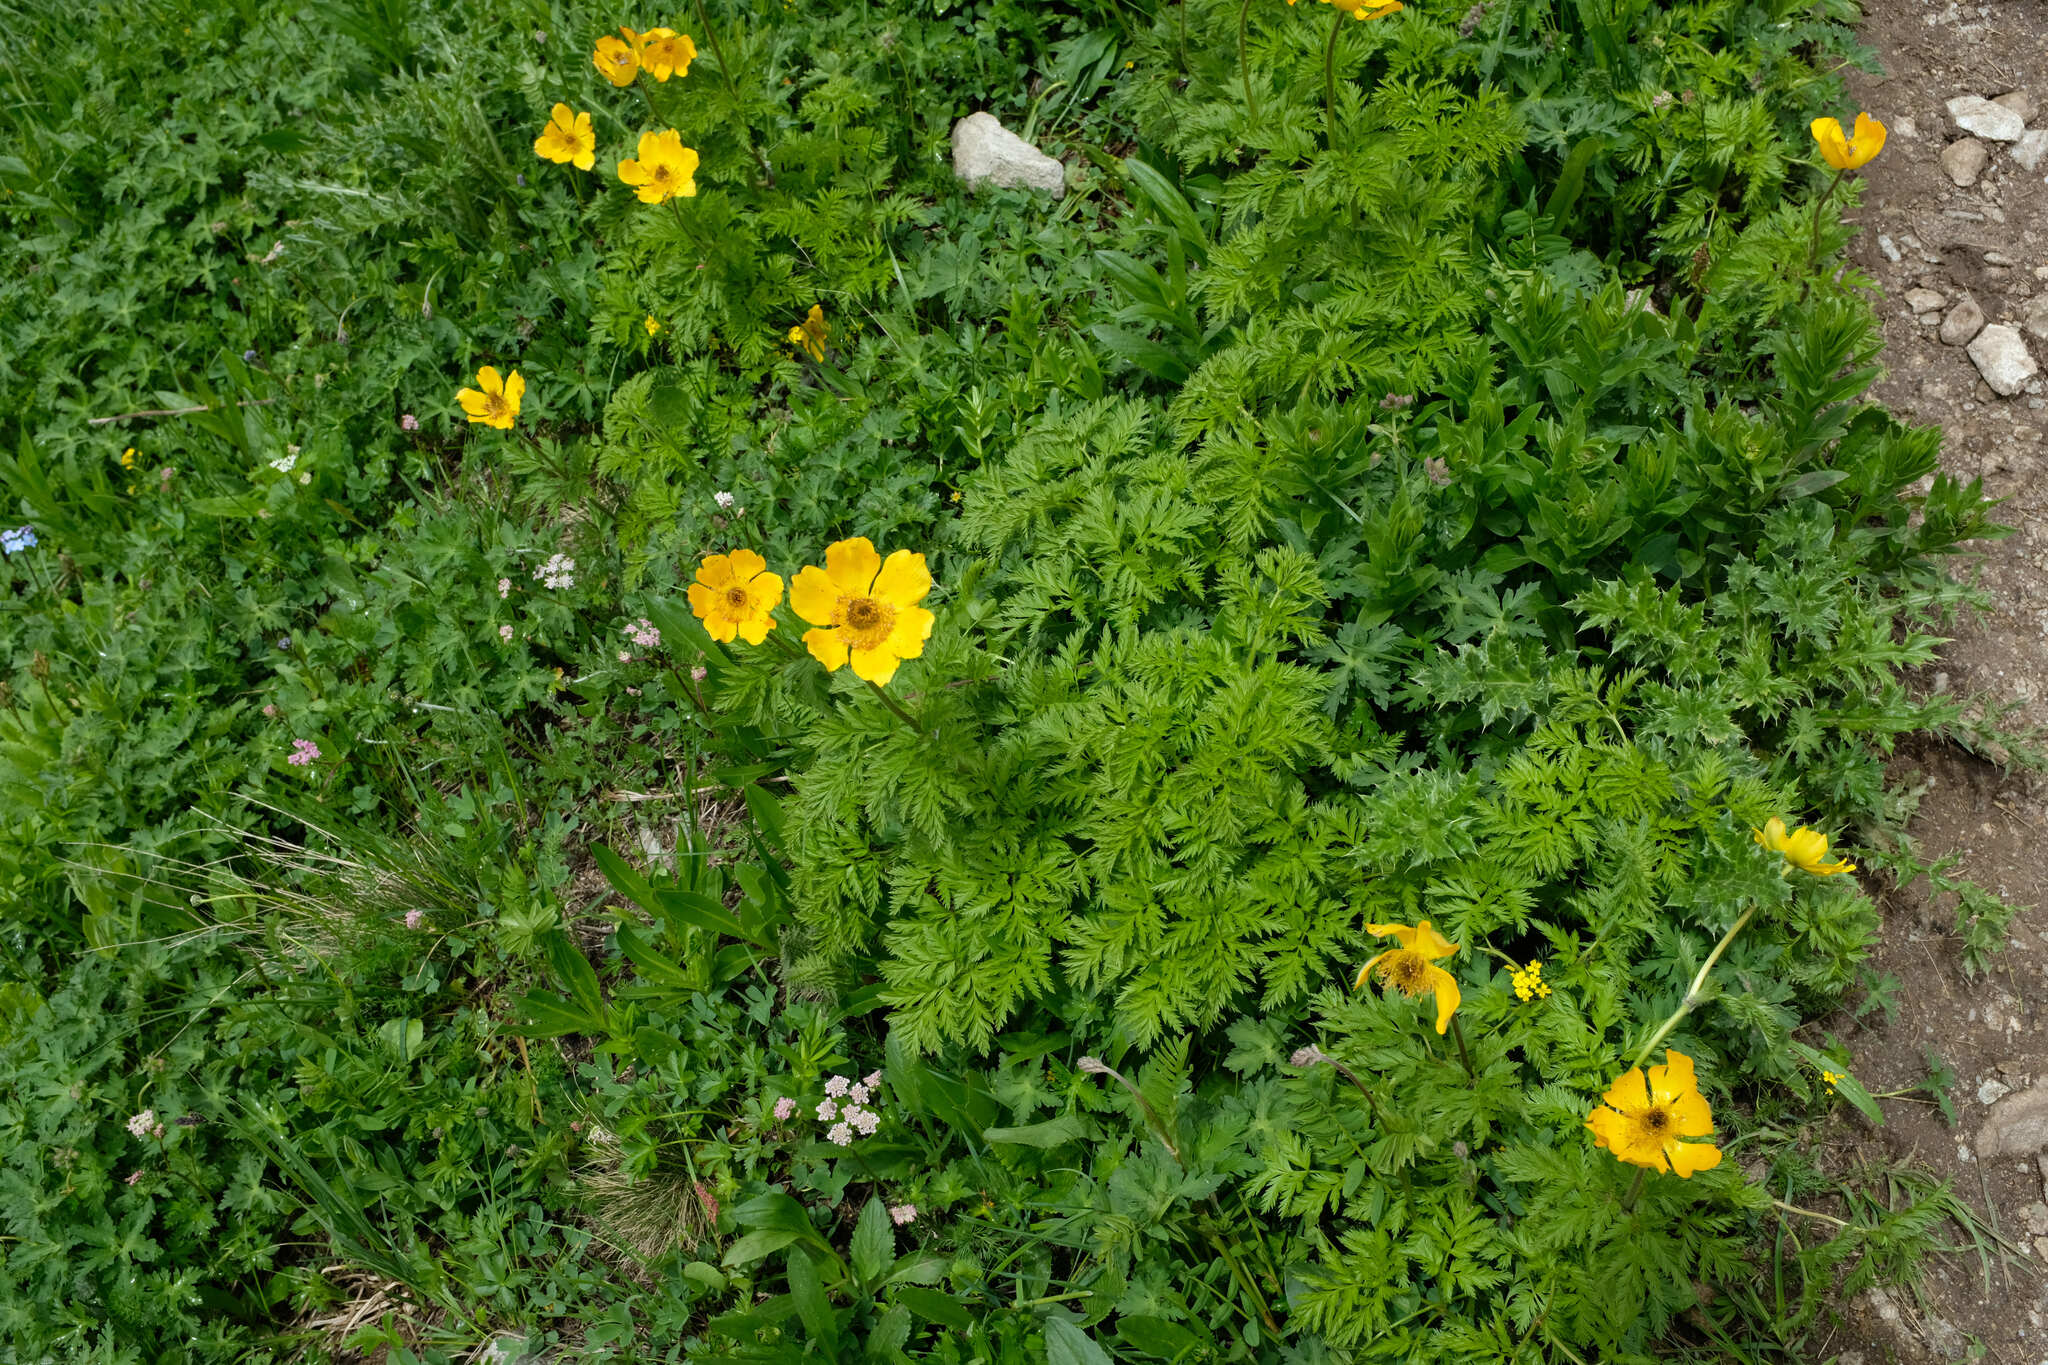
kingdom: Plantae
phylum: Tracheophyta
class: Magnoliopsida
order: Ranunculales
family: Ranunculaceae
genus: Pulsatilla
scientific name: Pulsatilla aurea
